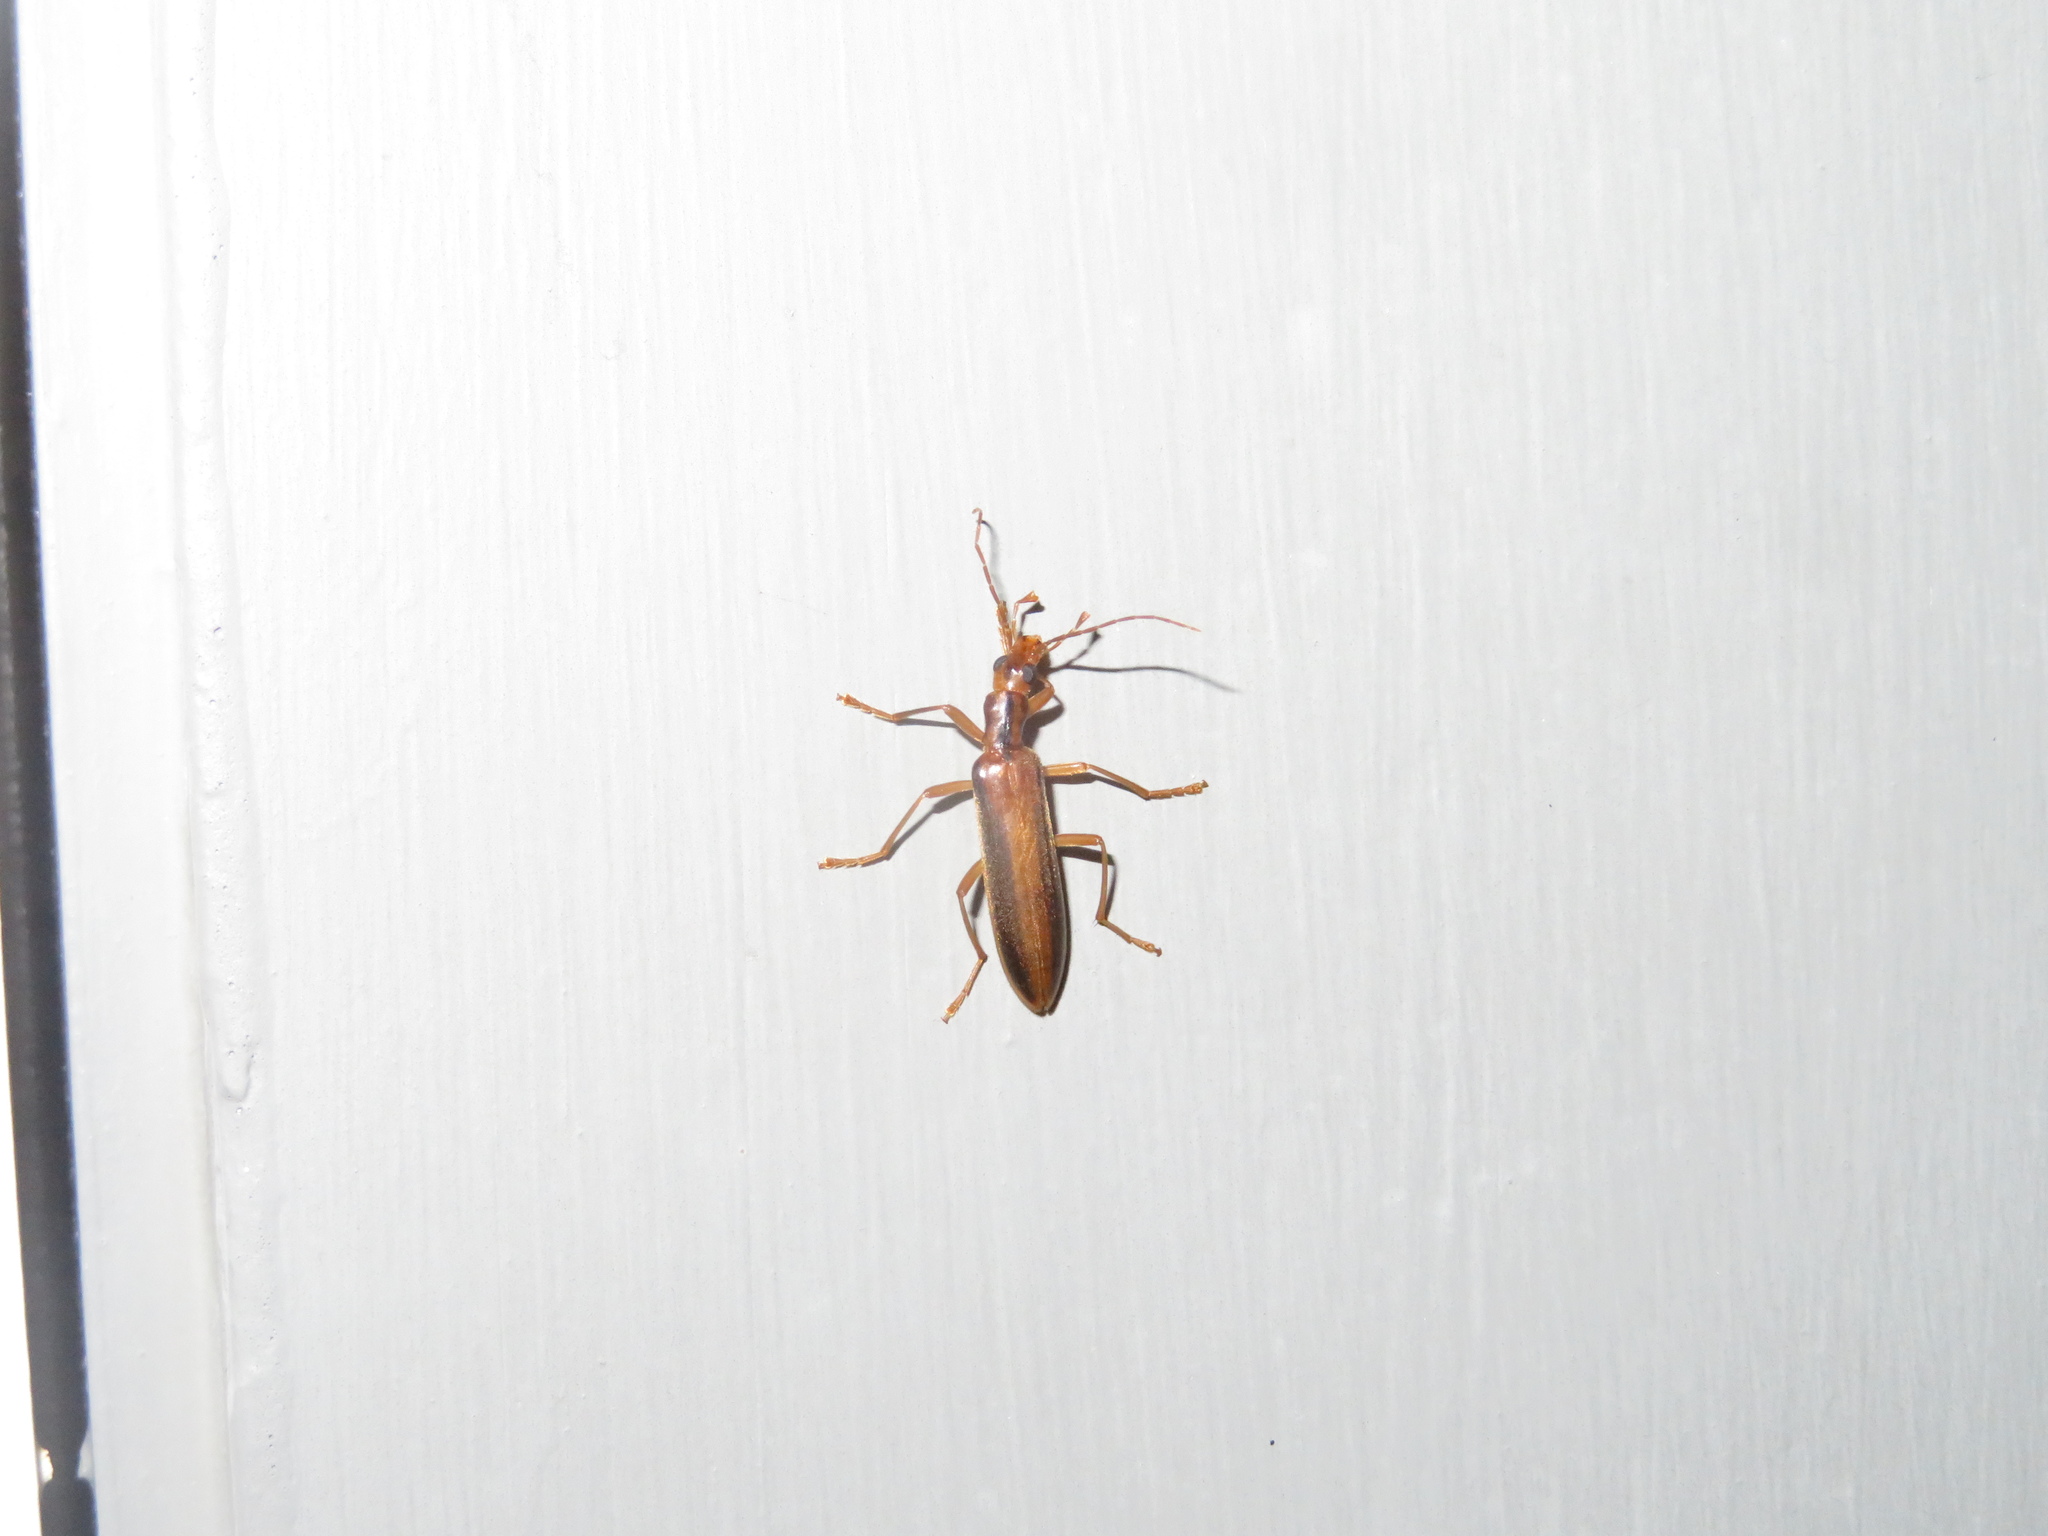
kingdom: Animalia
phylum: Arthropoda
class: Insecta
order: Coleoptera
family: Oedemeridae
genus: Thelyphassa
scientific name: Thelyphassa
